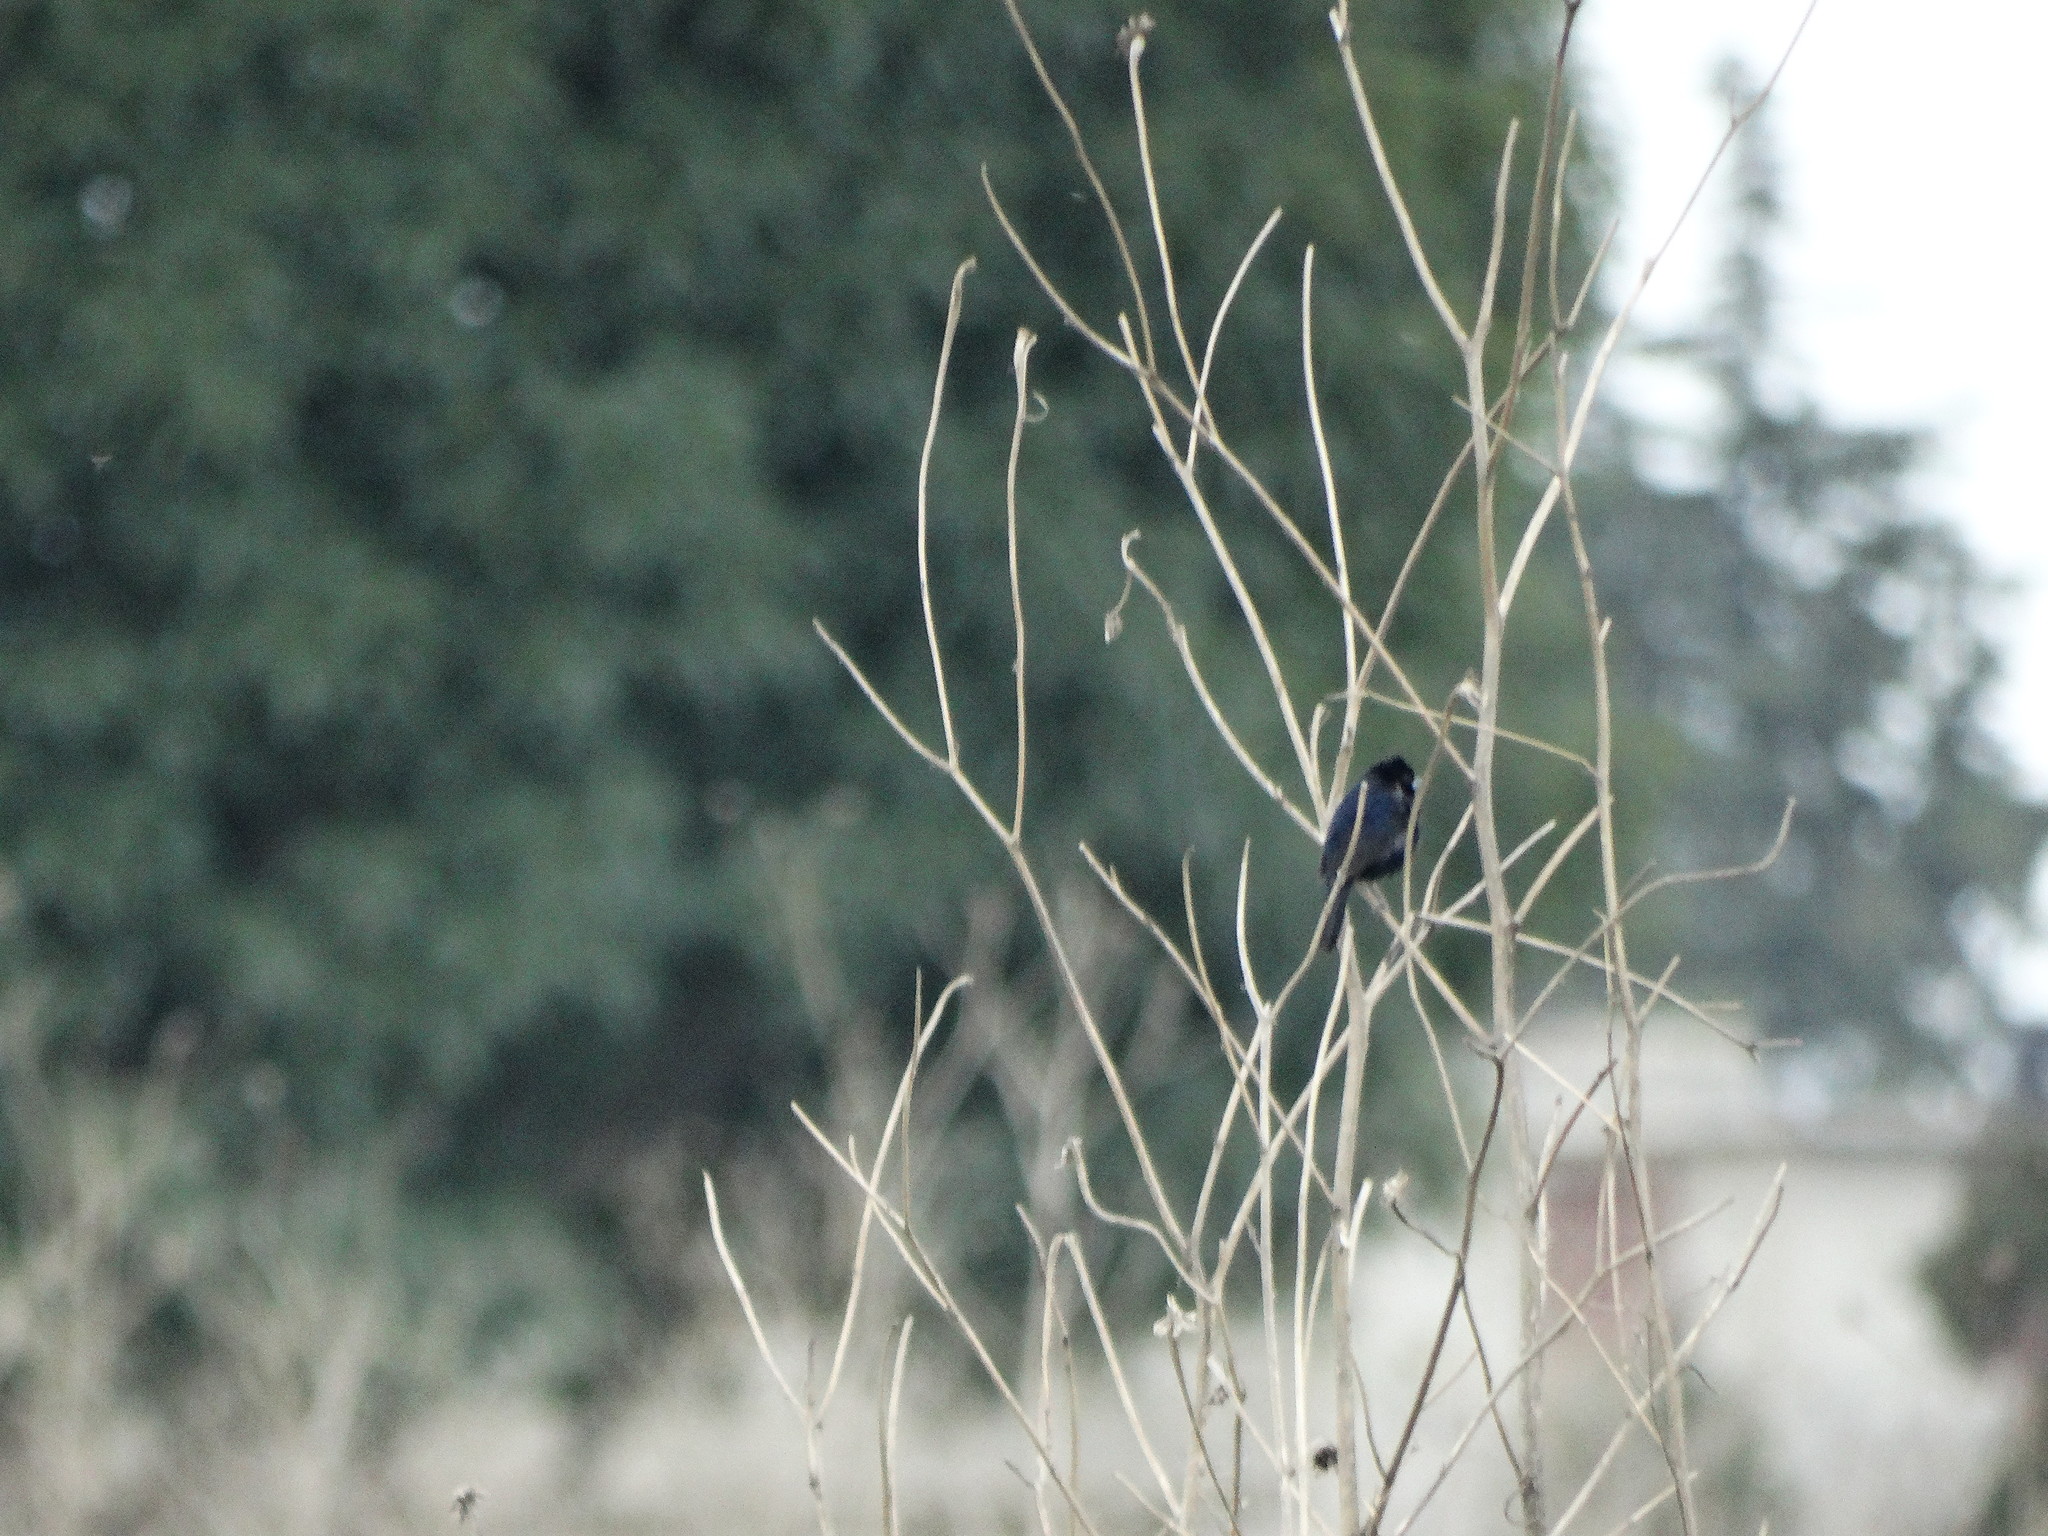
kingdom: Animalia
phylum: Chordata
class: Aves
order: Passeriformes
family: Thraupidae
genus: Volatinia
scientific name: Volatinia jacarina
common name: Blue-black grassquit
